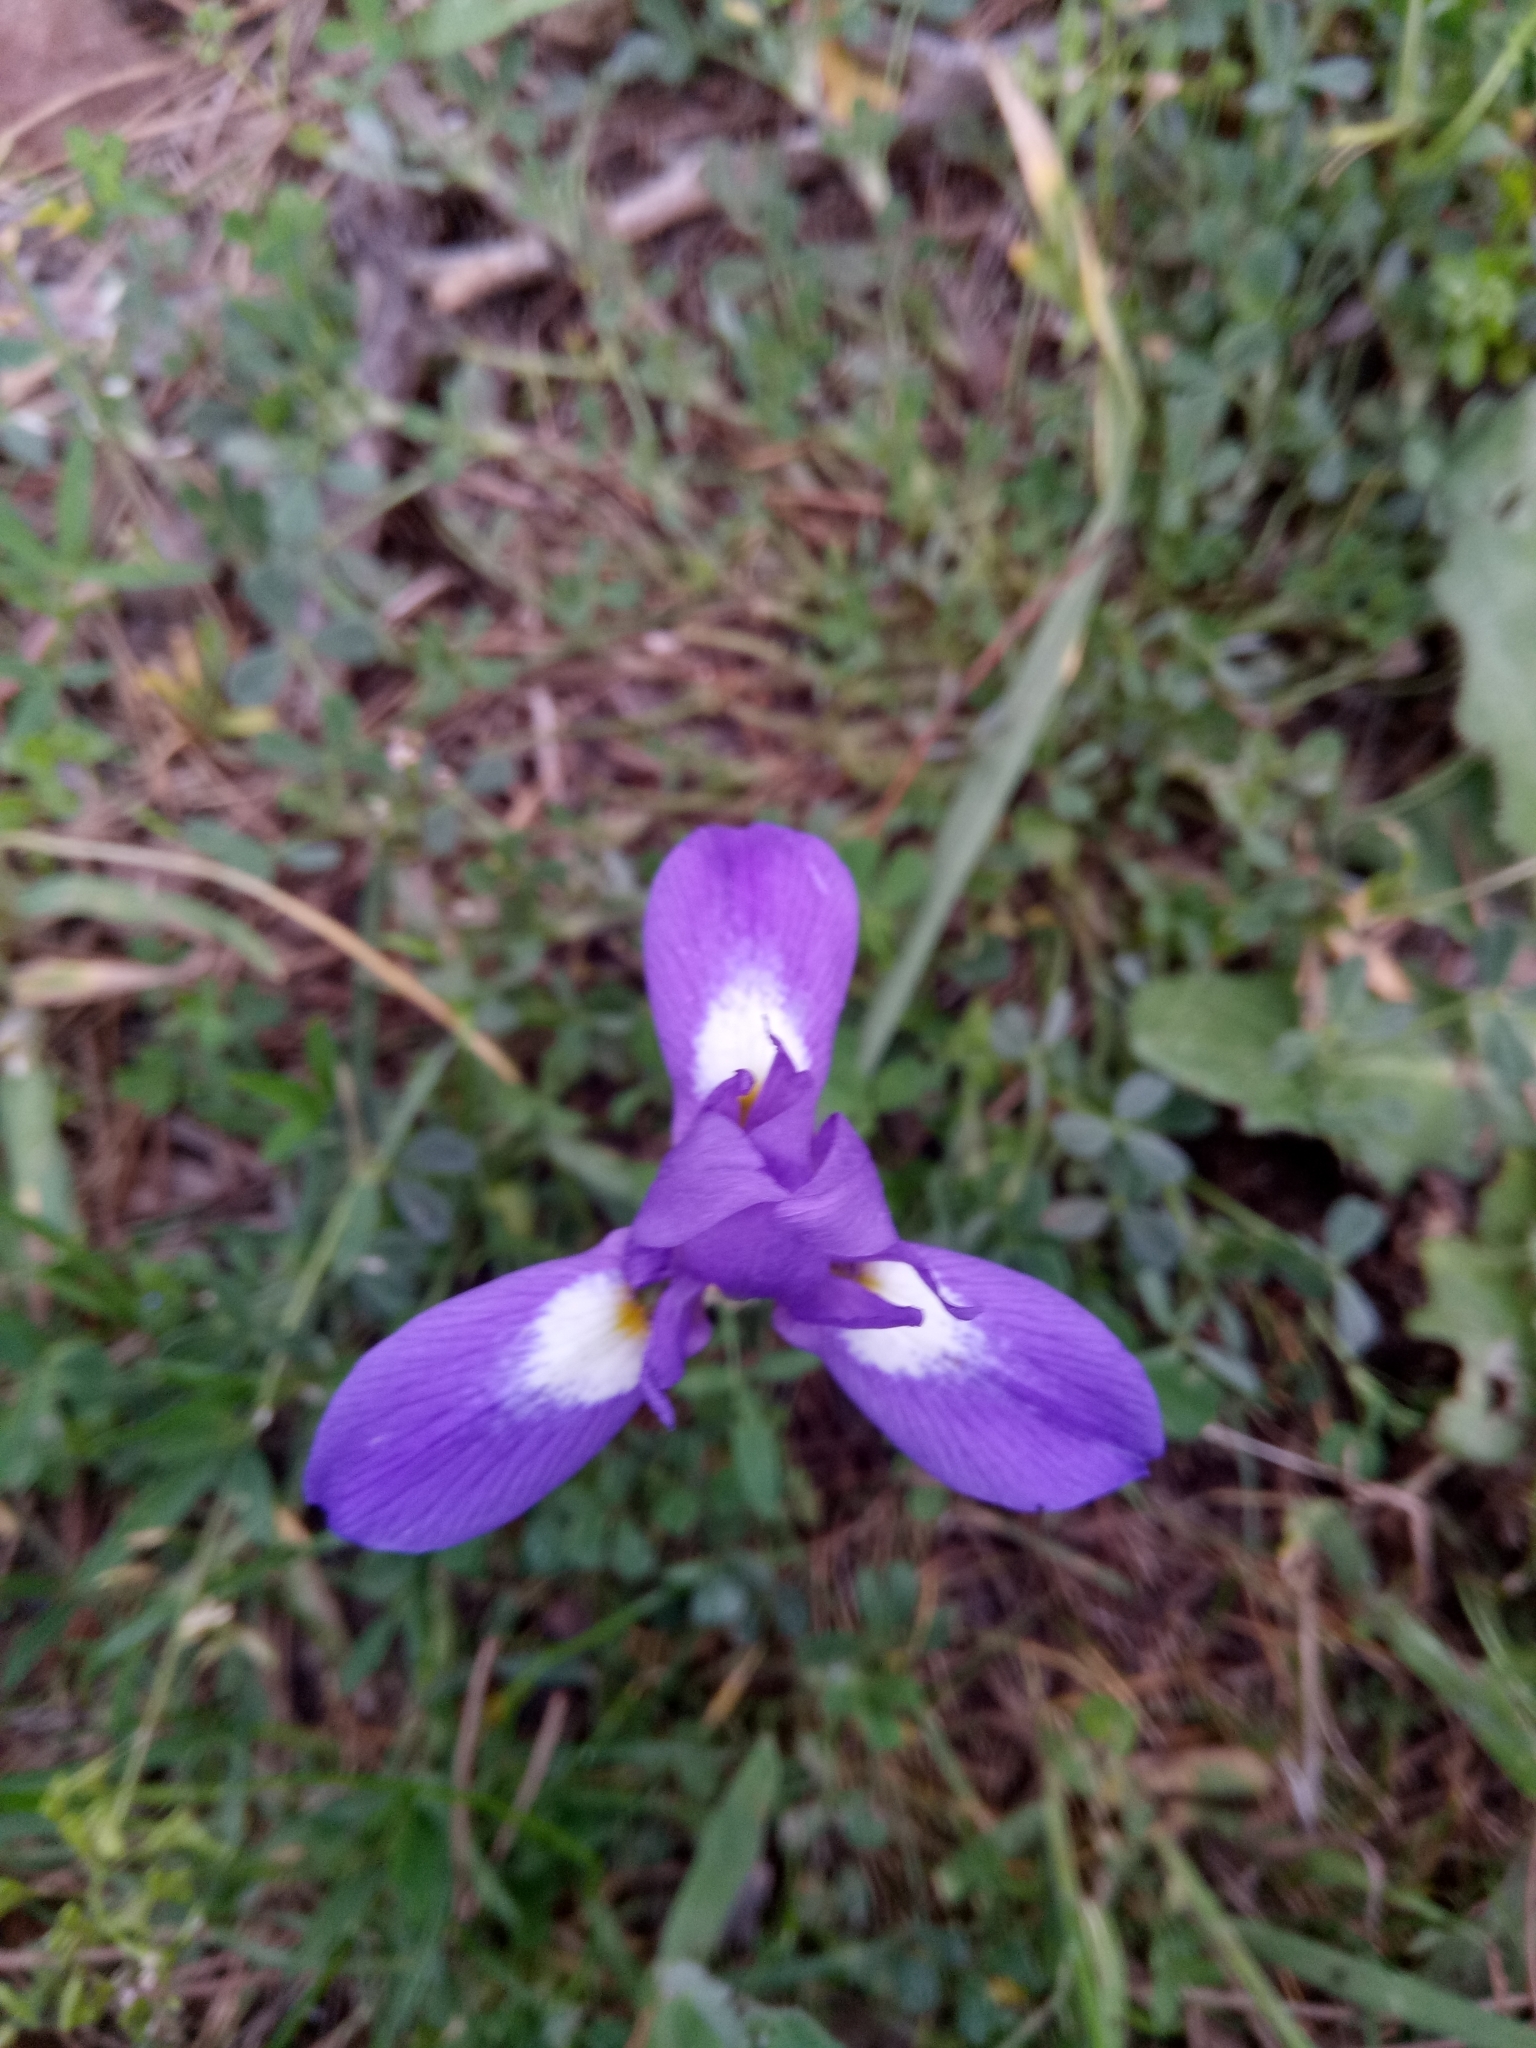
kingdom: Plantae
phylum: Tracheophyta
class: Liliopsida
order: Asparagales
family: Iridaceae
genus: Moraea
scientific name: Moraea sisyrinchium
